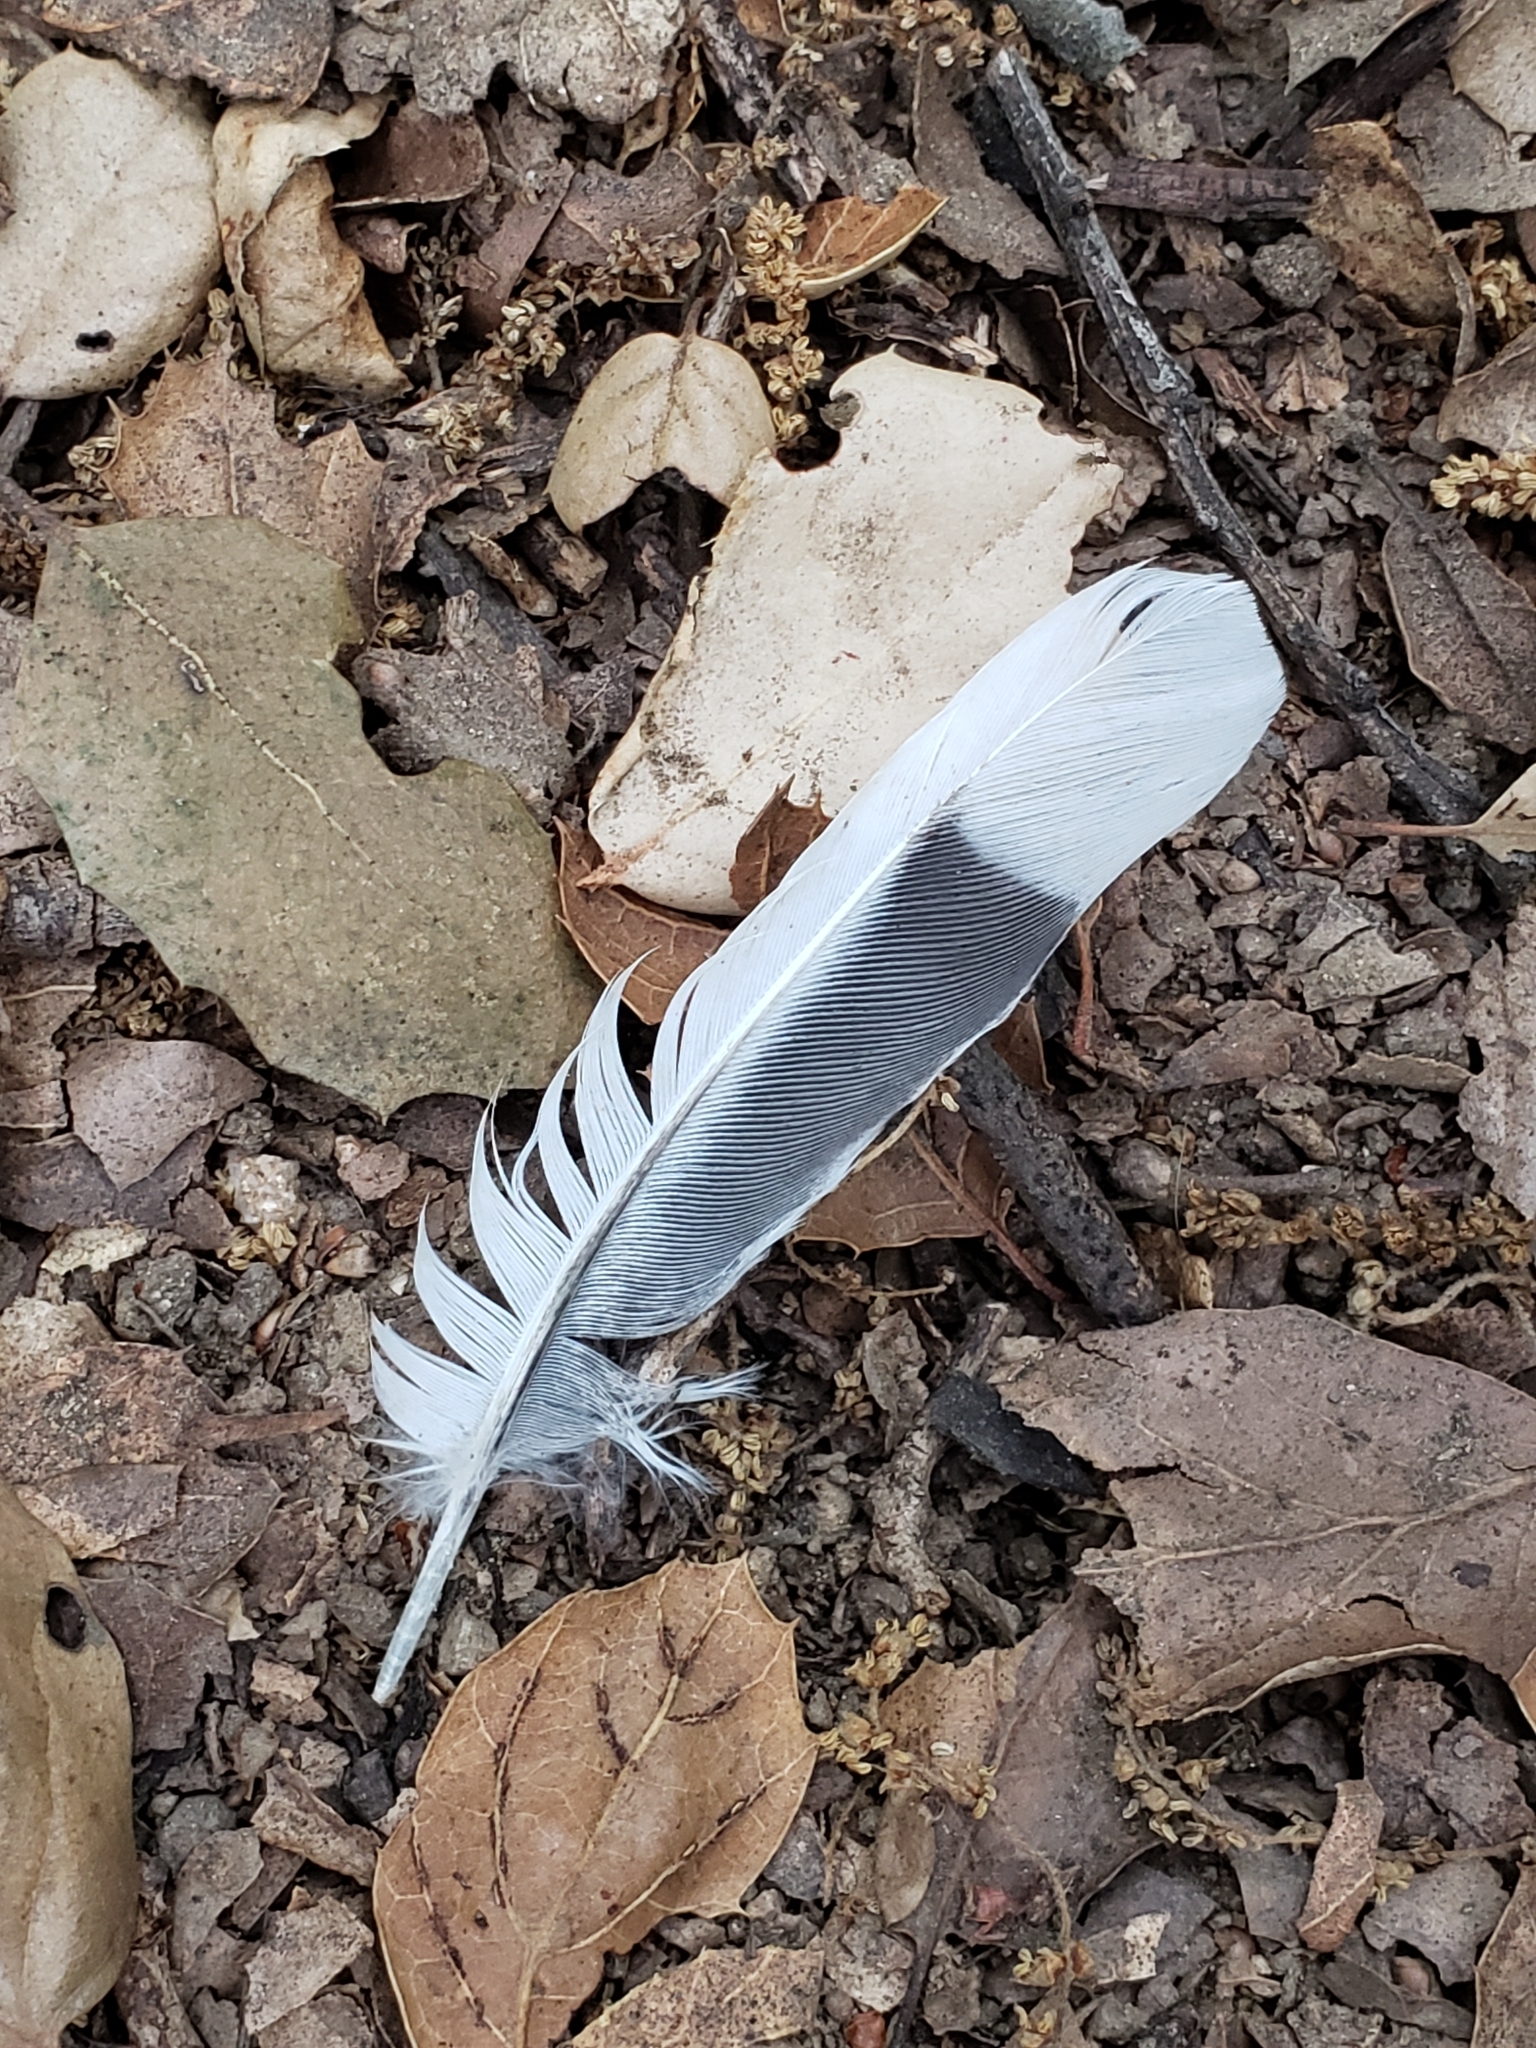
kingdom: Animalia
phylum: Chordata
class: Aves
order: Columbiformes
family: Columbidae
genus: Zenaida
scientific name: Zenaida macroura
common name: Mourning dove
